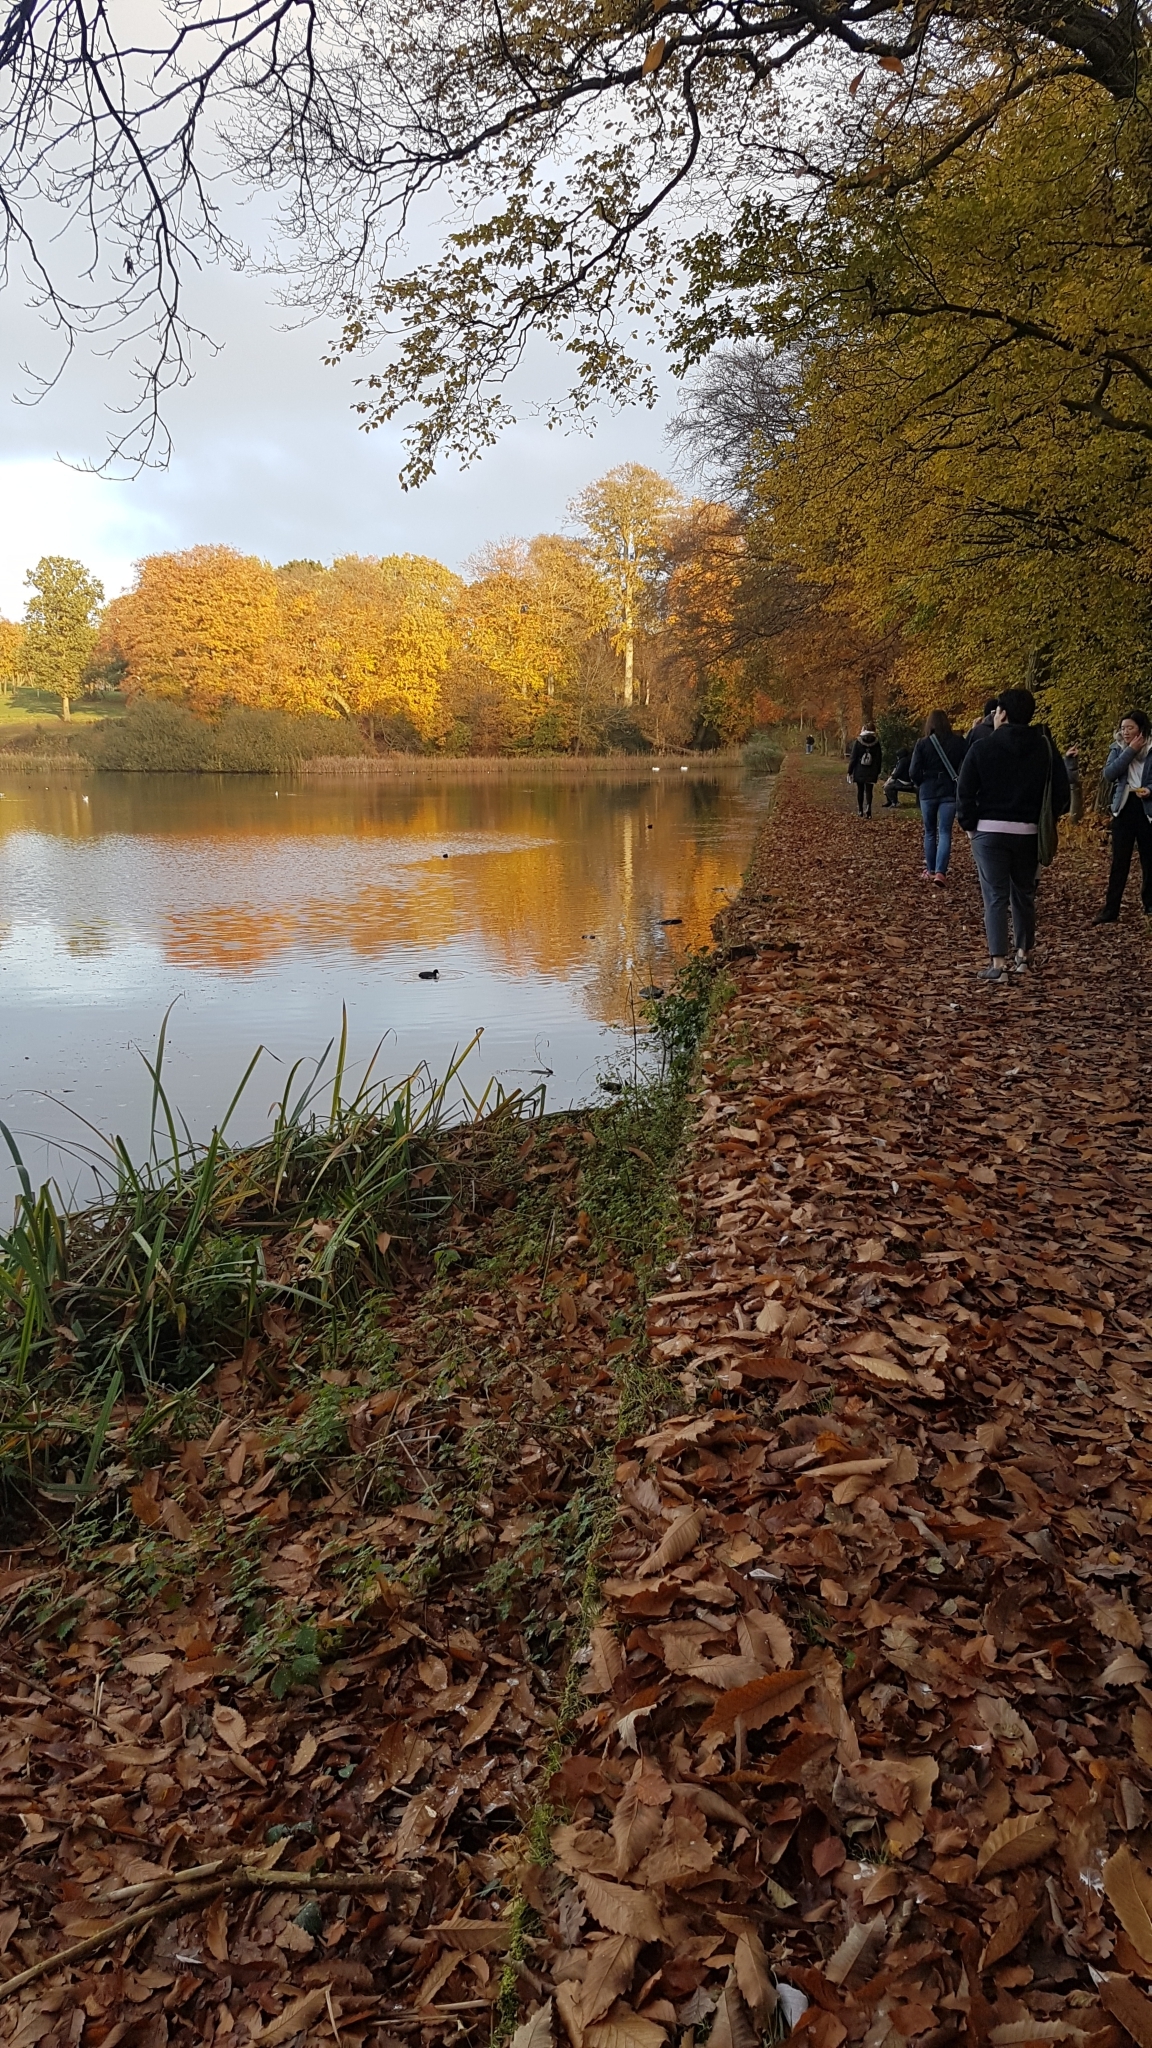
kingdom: Animalia
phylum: Chordata
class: Aves
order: Anseriformes
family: Anatidae
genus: Cygnus
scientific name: Cygnus olor
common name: Mute swan
